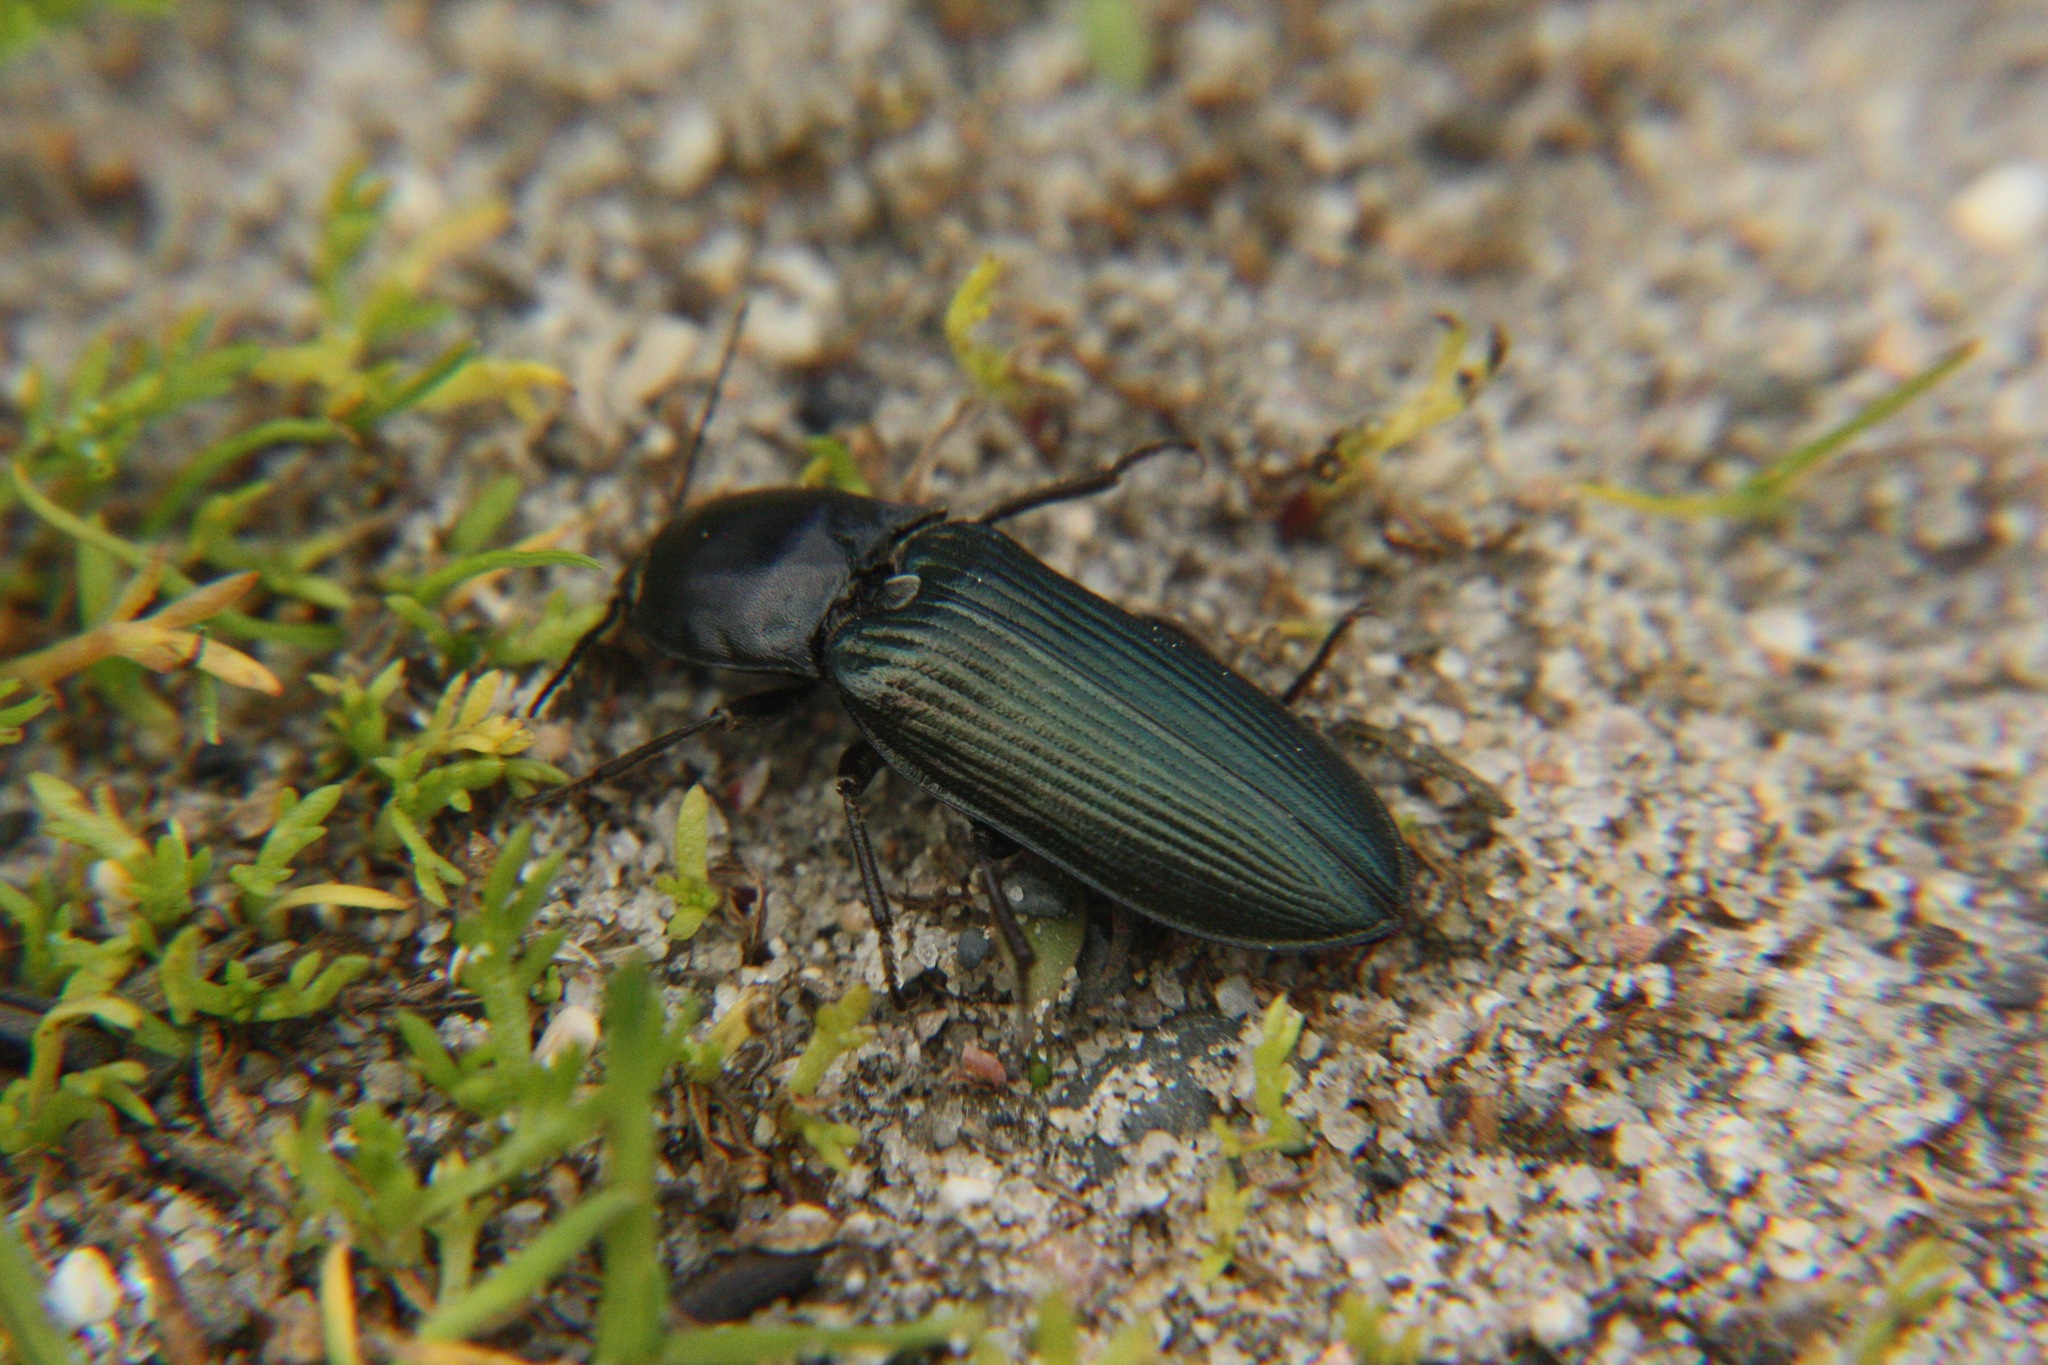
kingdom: Animalia
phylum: Arthropoda
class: Insecta
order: Coleoptera
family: Elateridae
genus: Selatosomus
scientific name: Selatosomus melancholicus
